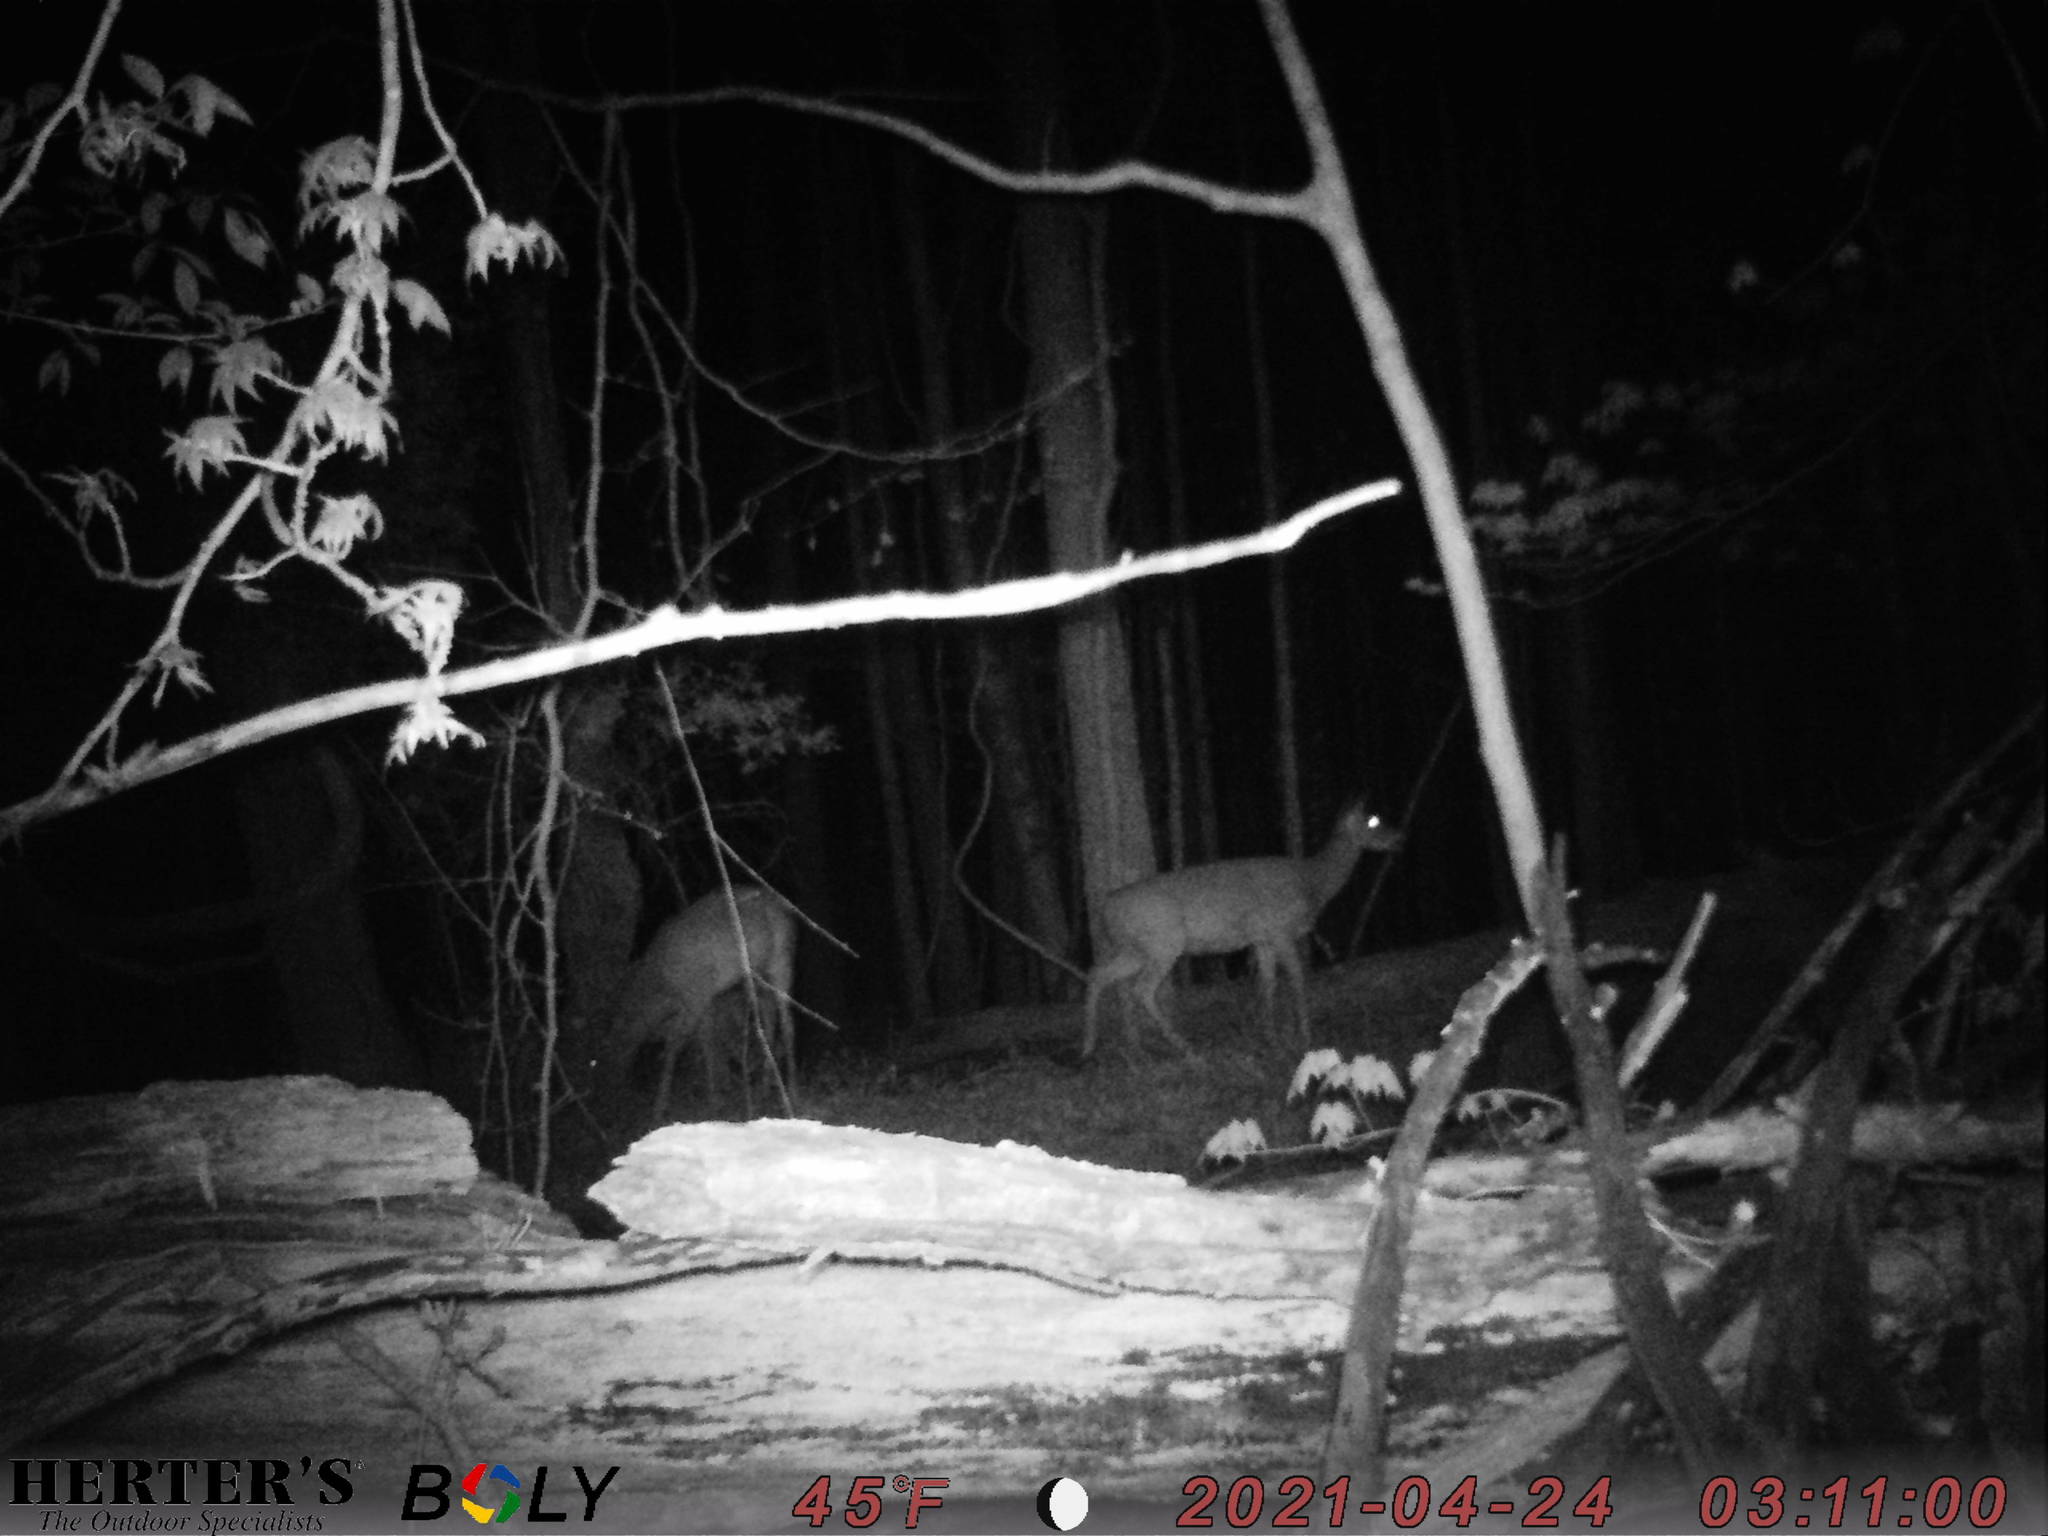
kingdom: Animalia
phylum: Chordata
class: Mammalia
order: Artiodactyla
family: Cervidae
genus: Odocoileus
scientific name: Odocoileus virginianus
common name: White-tailed deer
